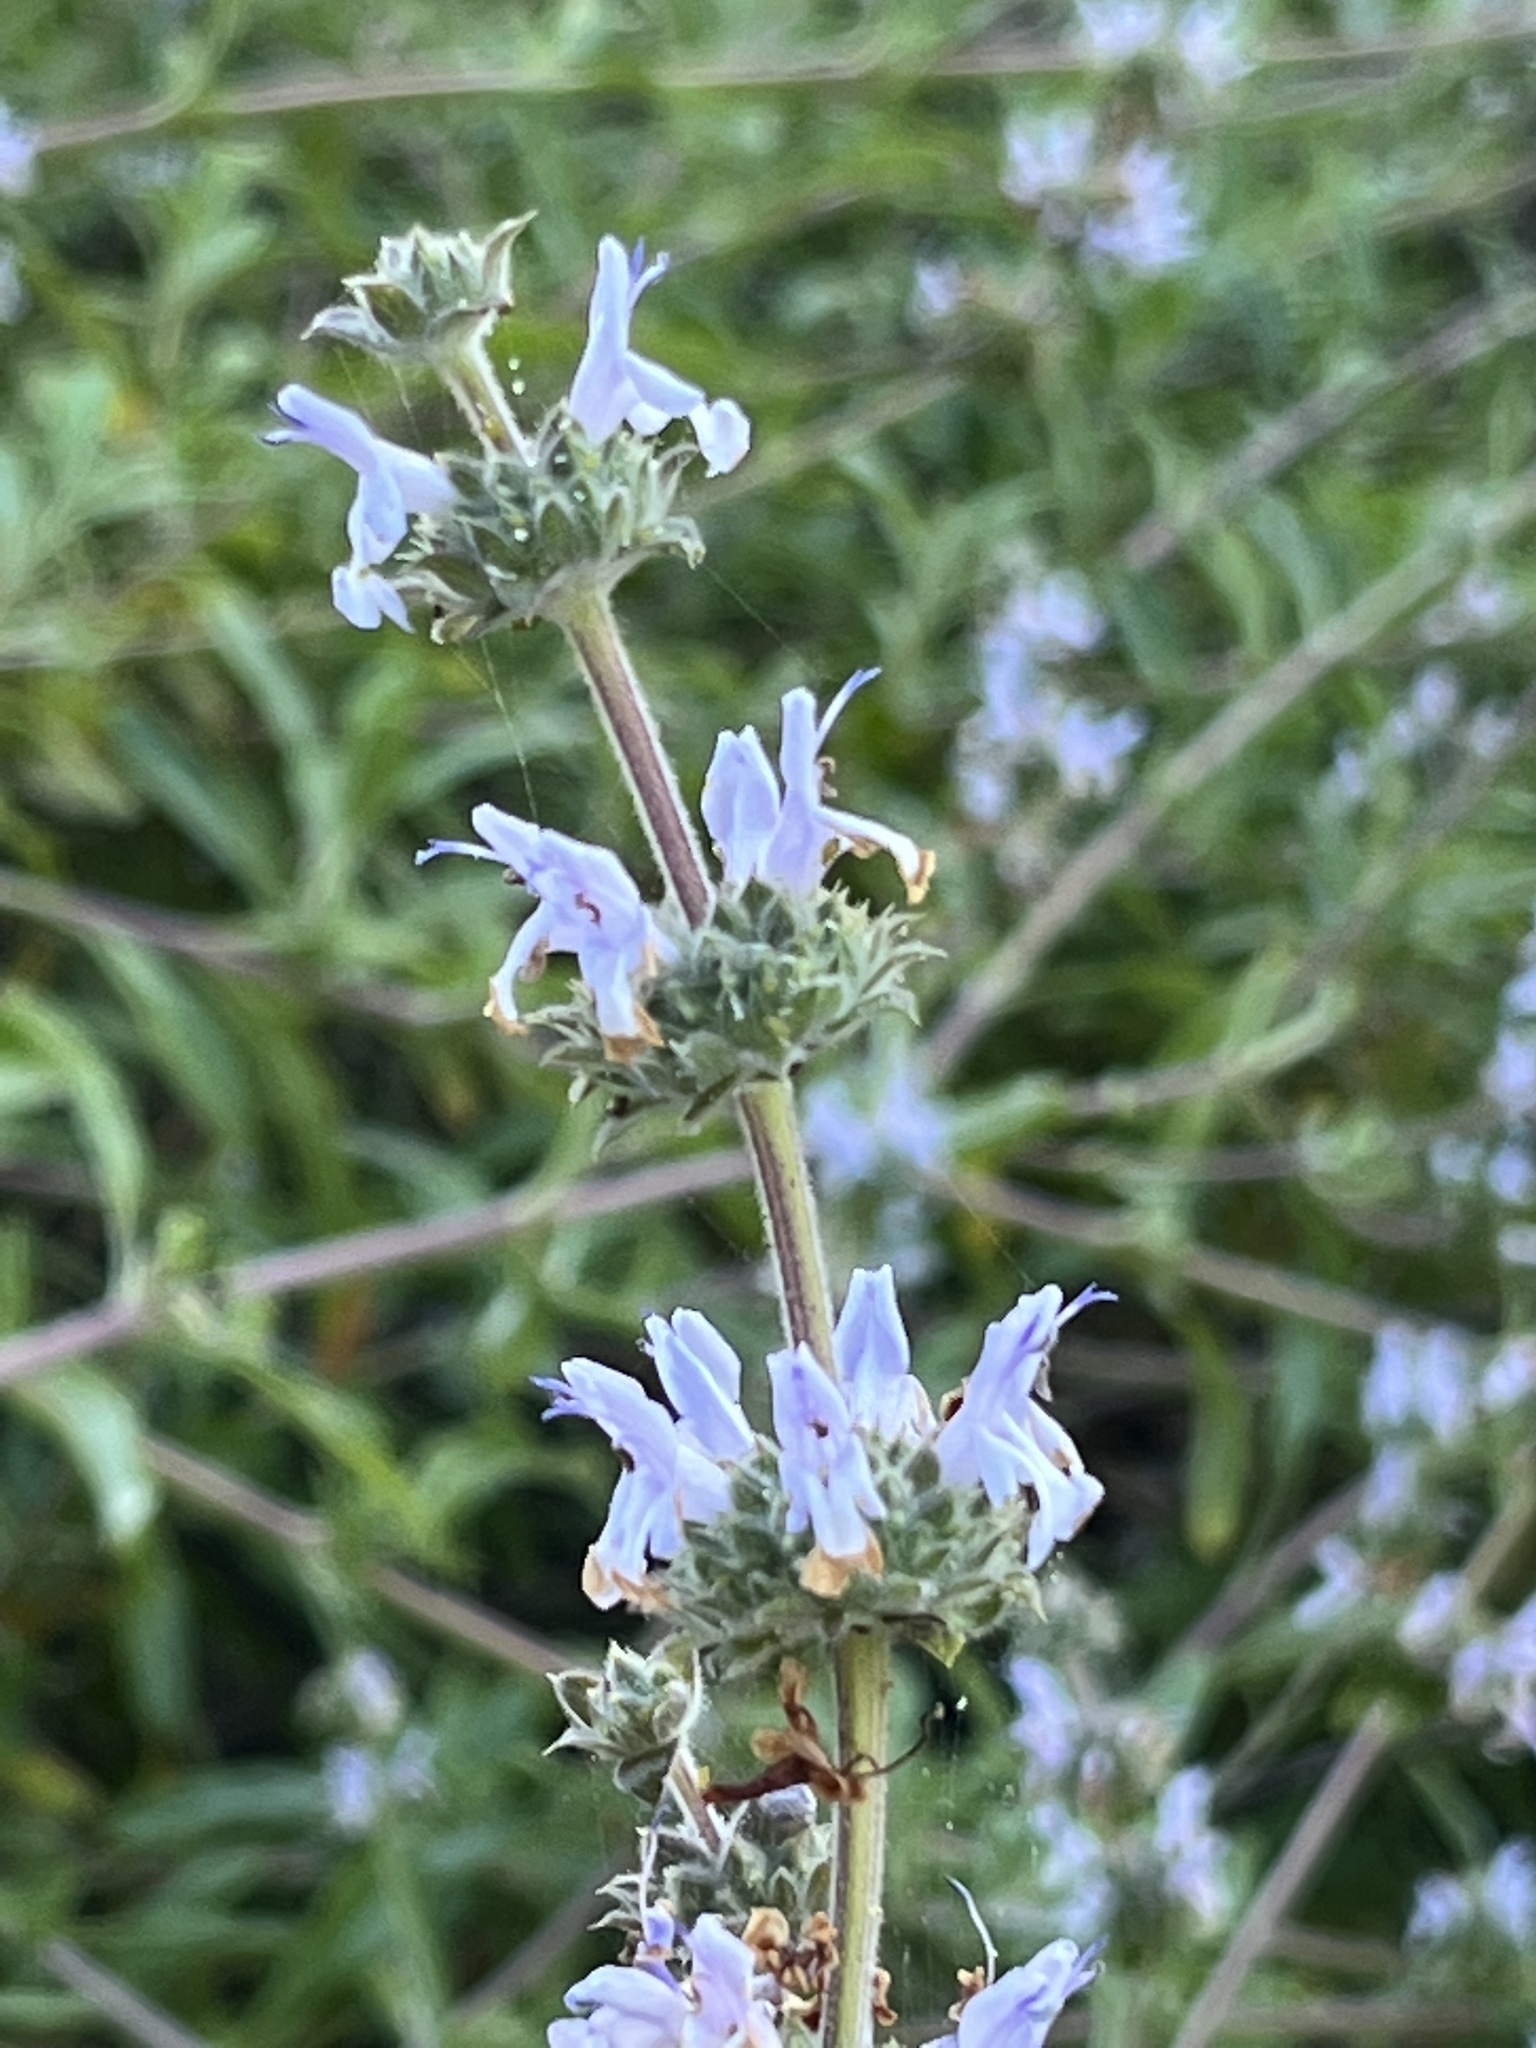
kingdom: Plantae
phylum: Tracheophyta
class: Magnoliopsida
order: Lamiales
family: Lamiaceae
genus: Salvia
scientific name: Salvia mellifera
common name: Black sage
